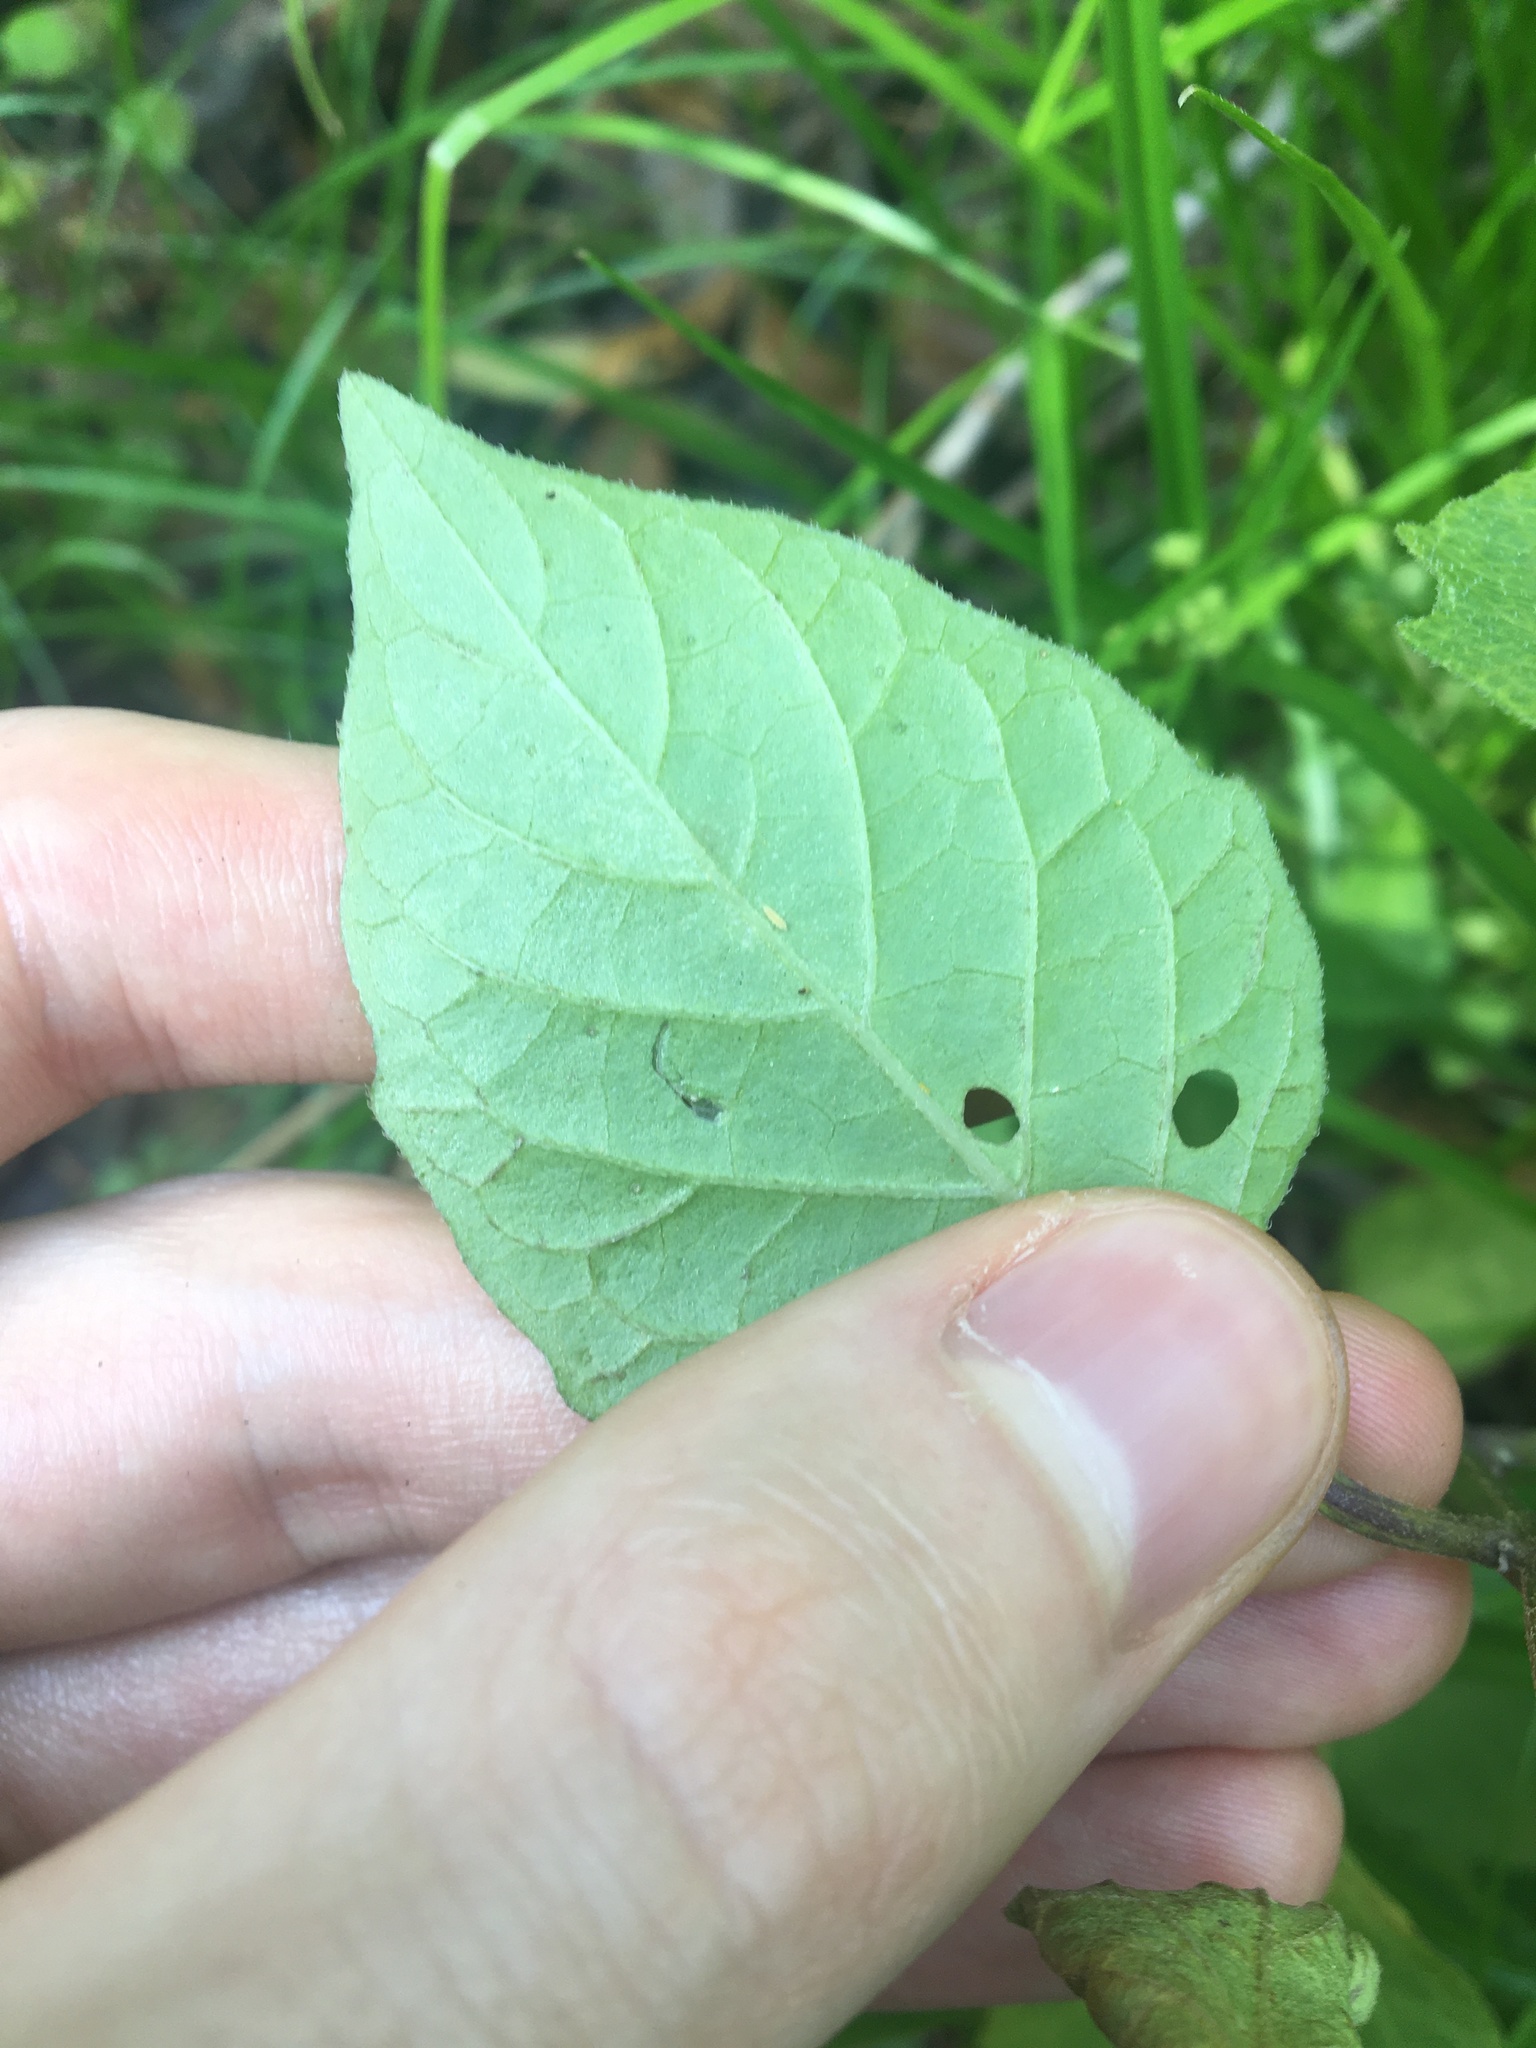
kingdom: Plantae
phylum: Tracheophyta
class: Magnoliopsida
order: Solanales
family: Solanaceae
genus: Solanum
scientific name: Solanum
